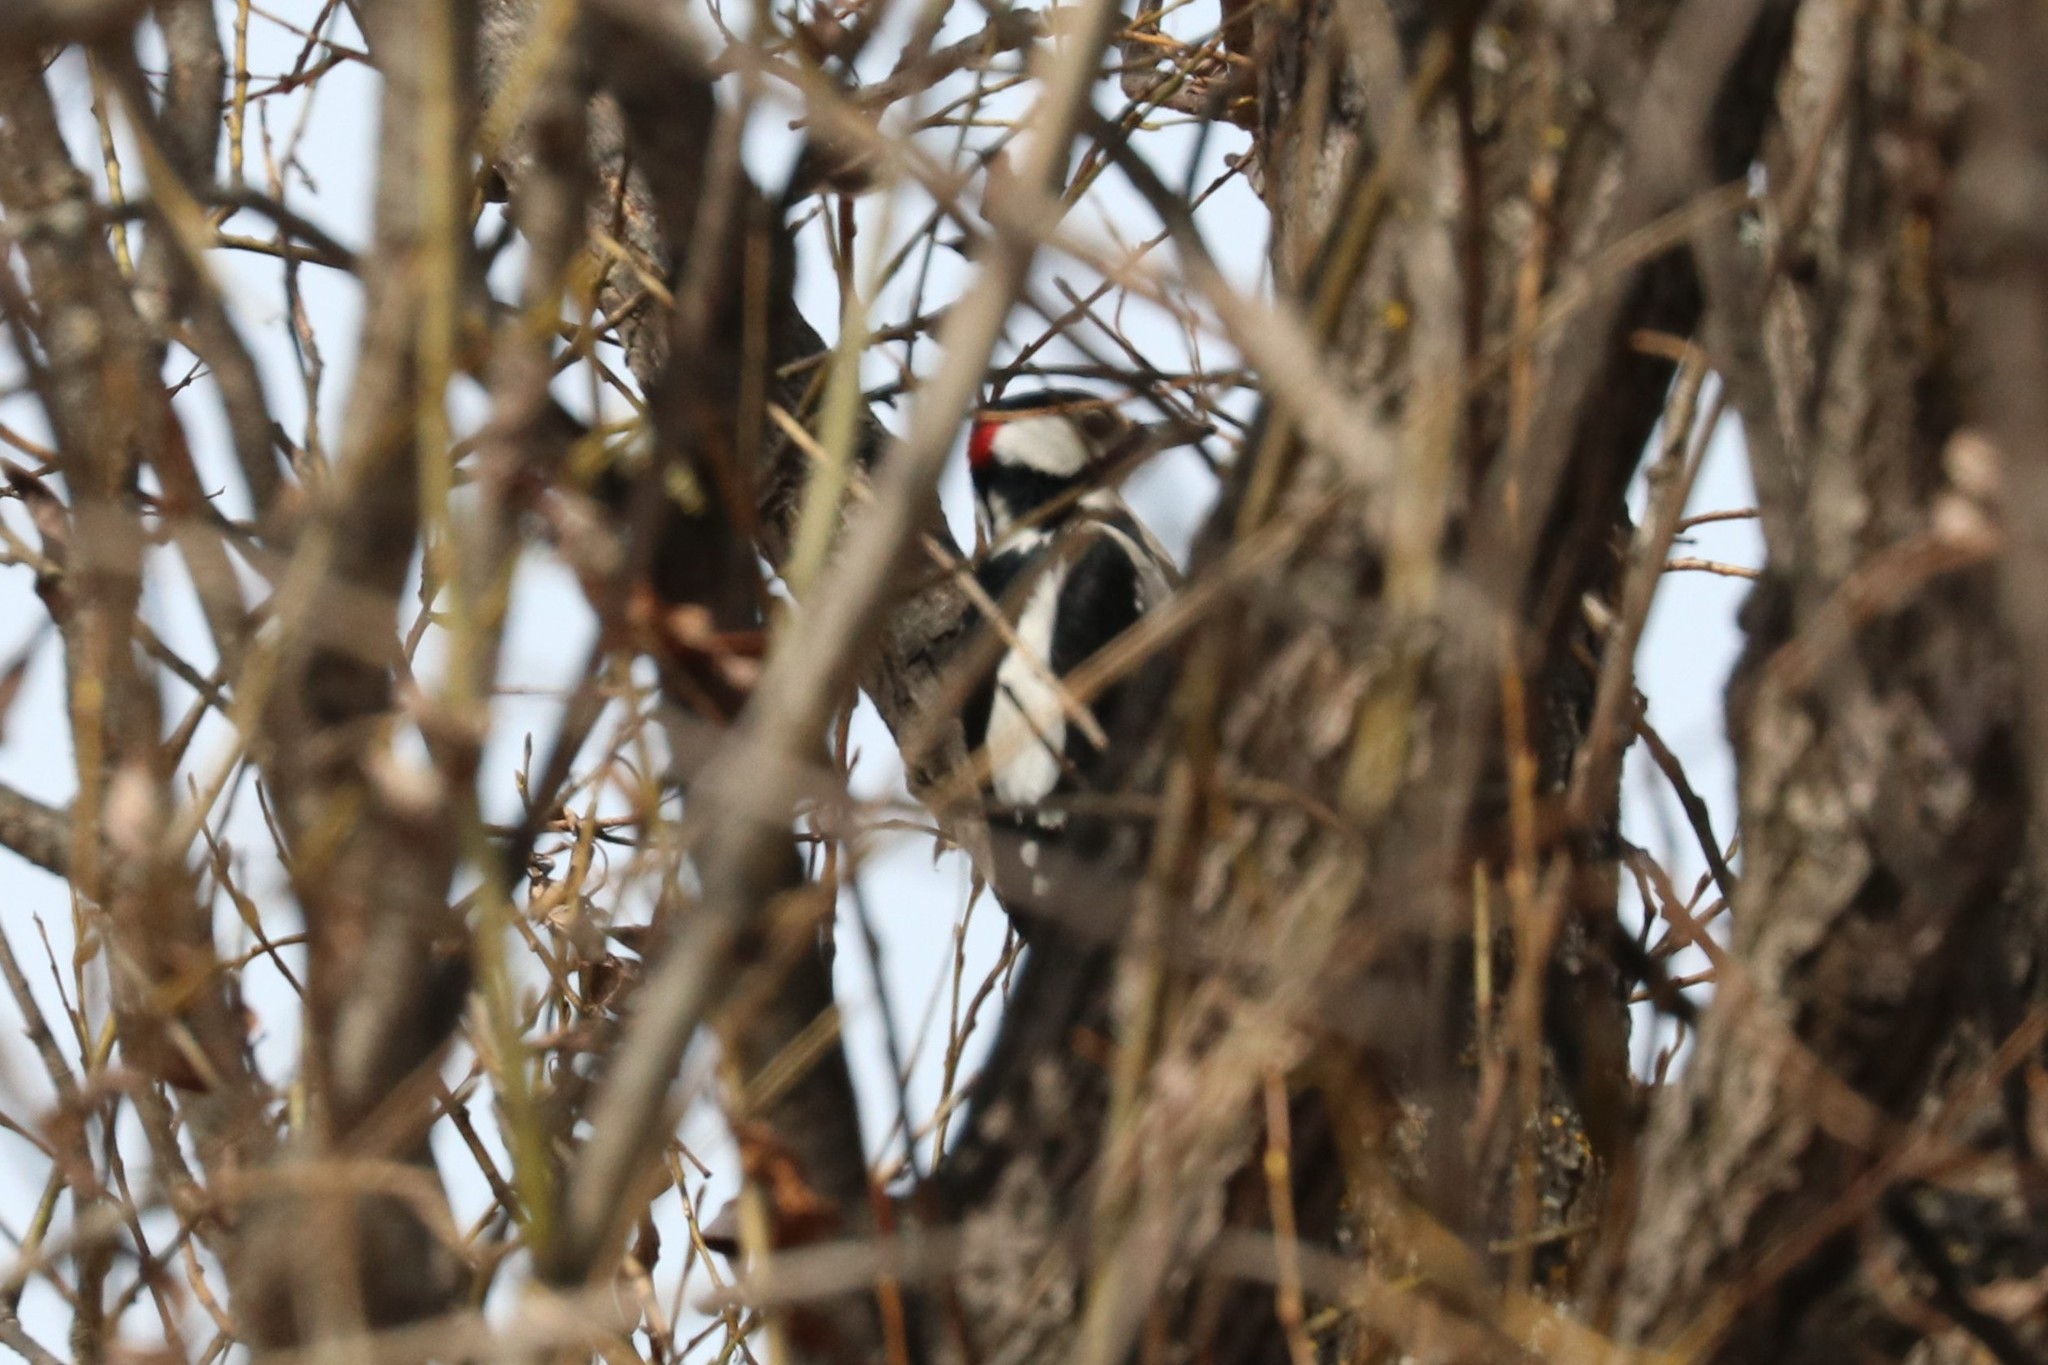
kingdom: Animalia
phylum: Chordata
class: Aves
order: Piciformes
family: Picidae
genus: Dendrocopos
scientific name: Dendrocopos major
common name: Great spotted woodpecker
